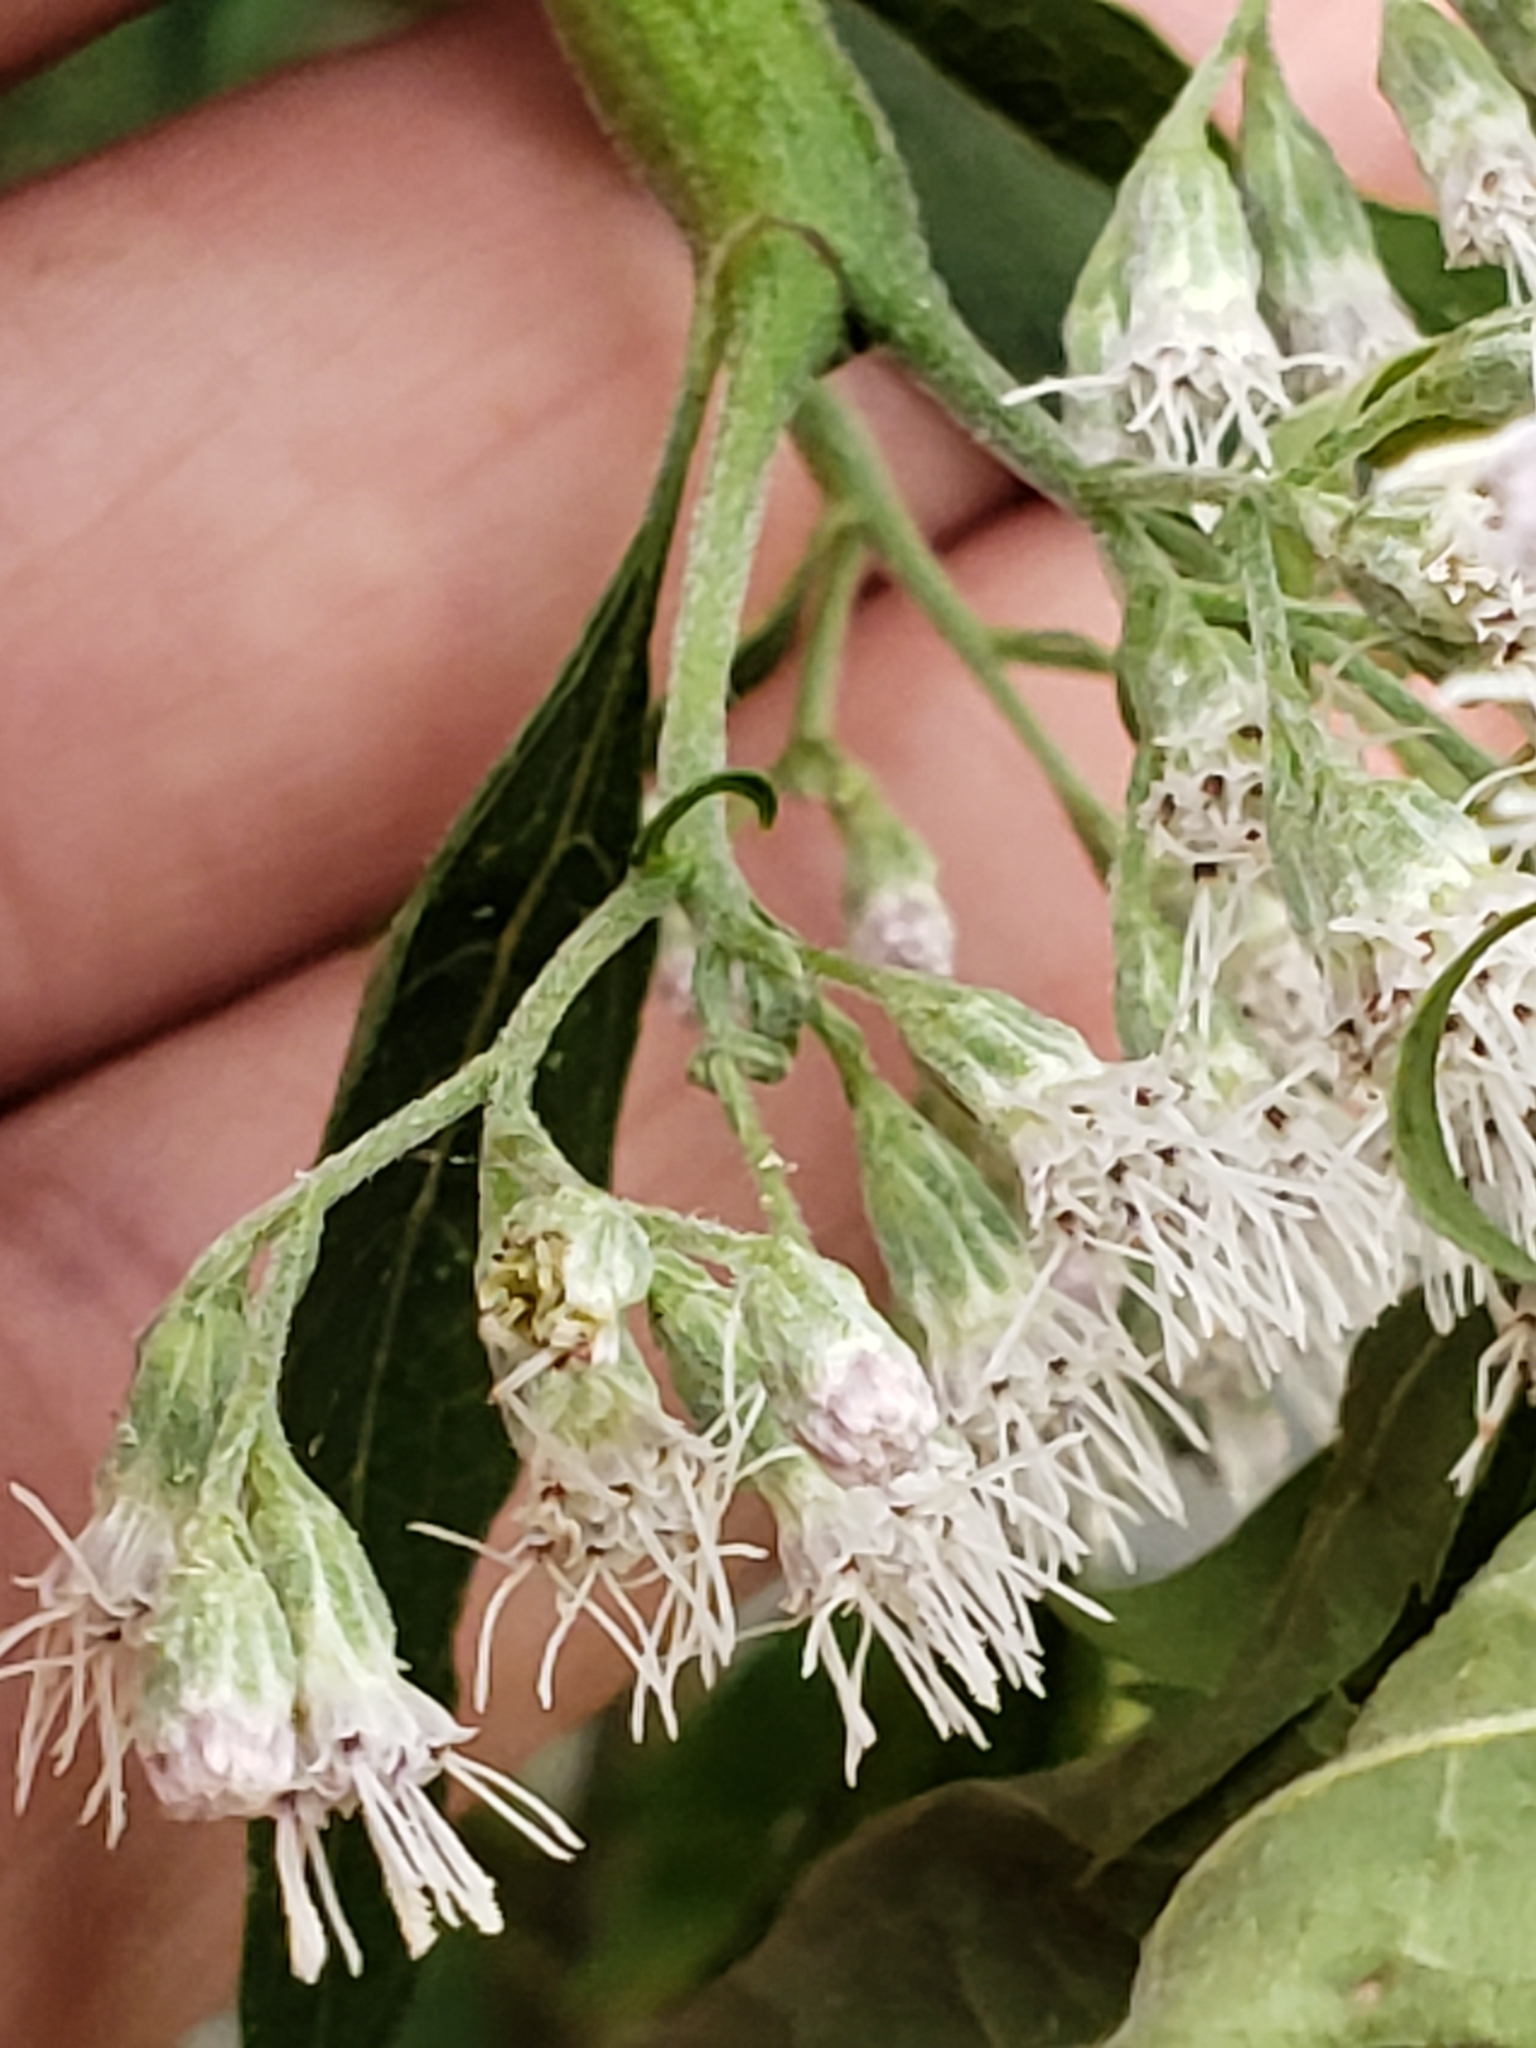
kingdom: Animalia
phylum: Arthropoda
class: Insecta
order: Diptera
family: Cecidomyiidae
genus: Neolasioptera
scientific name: Neolasioptera perfoliata
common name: Boneset stem midge
